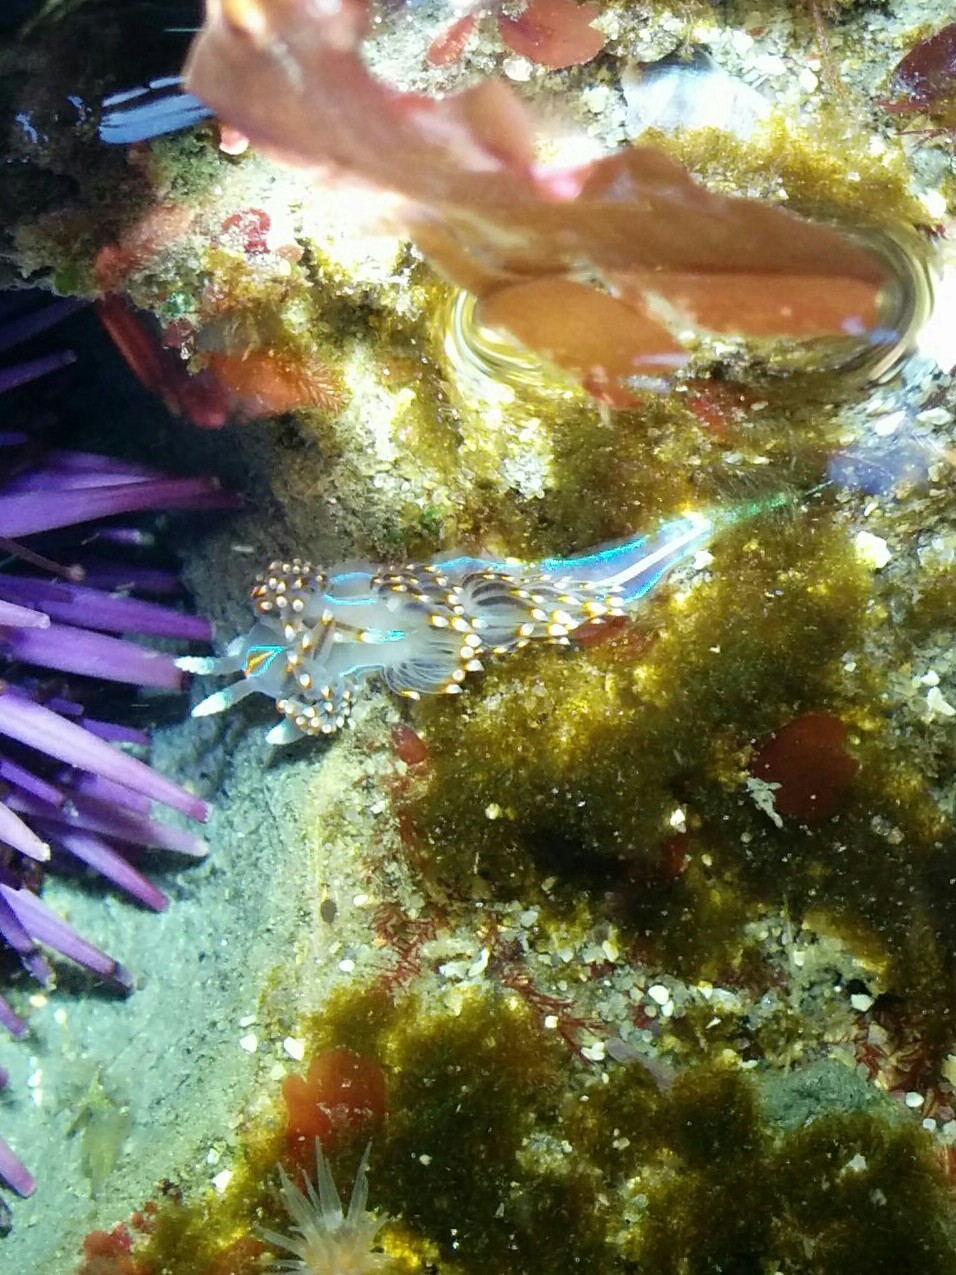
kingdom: Animalia
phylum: Mollusca
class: Gastropoda
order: Nudibranchia
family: Myrrhinidae
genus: Hermissenda
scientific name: Hermissenda opalescens
